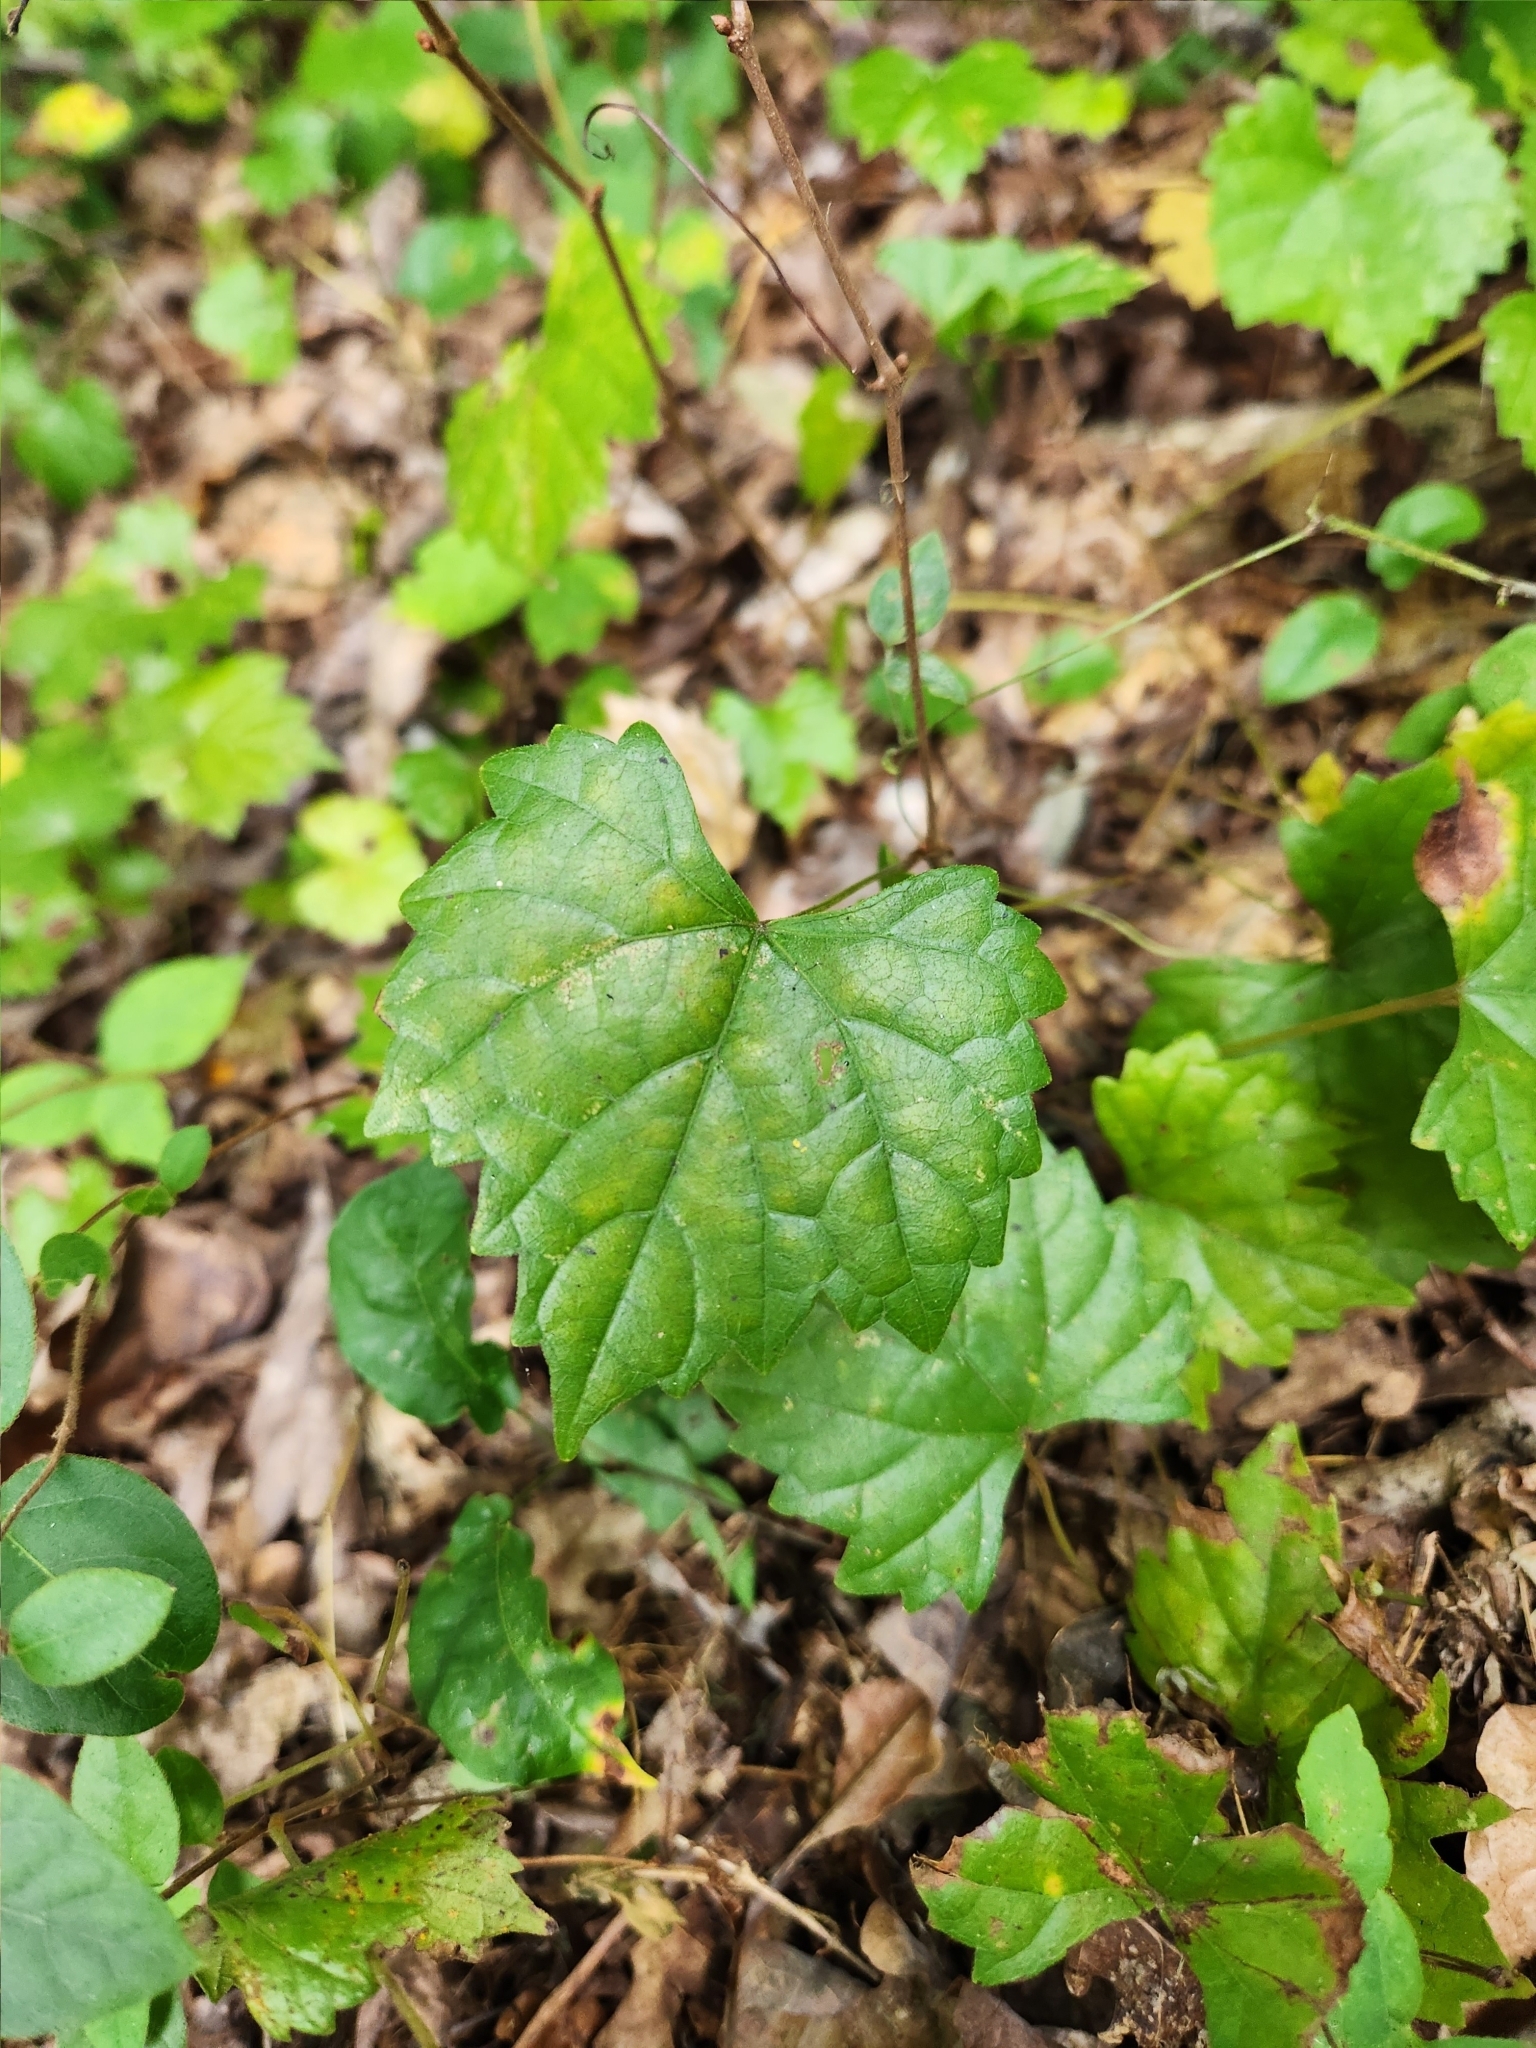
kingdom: Plantae
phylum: Tracheophyta
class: Magnoliopsida
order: Vitales
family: Vitaceae
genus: Vitis
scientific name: Vitis rotundifolia
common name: Muscadine grape
